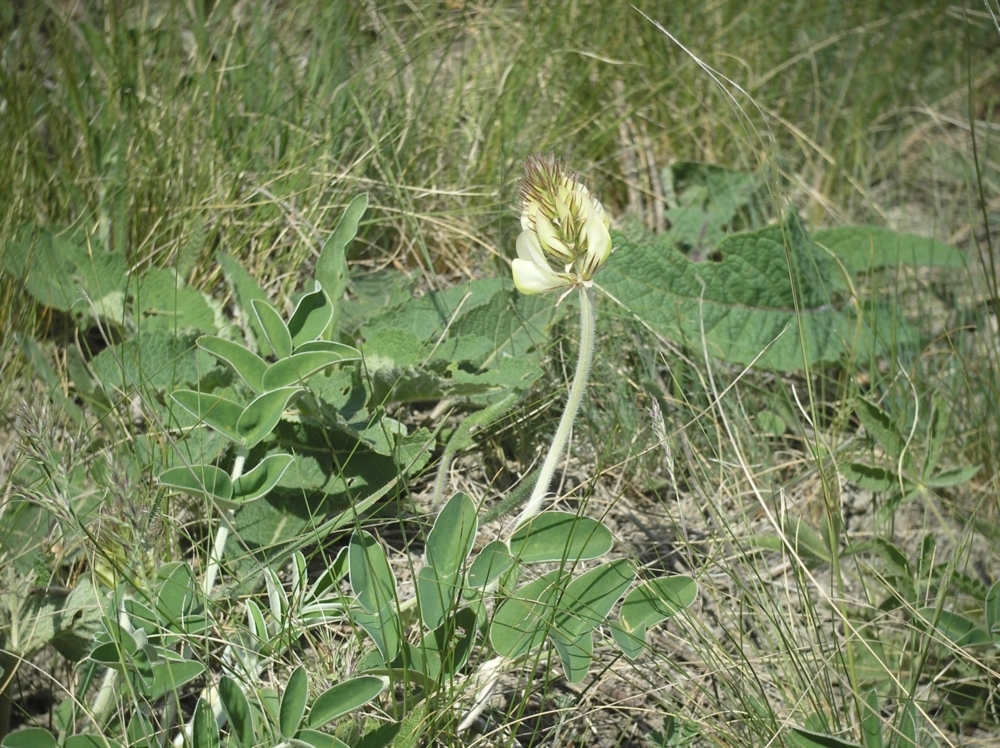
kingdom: Plantae
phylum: Tracheophyta
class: Magnoliopsida
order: Fabales
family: Fabaceae
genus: Hedysarum
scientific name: Hedysarum grandiflorum
